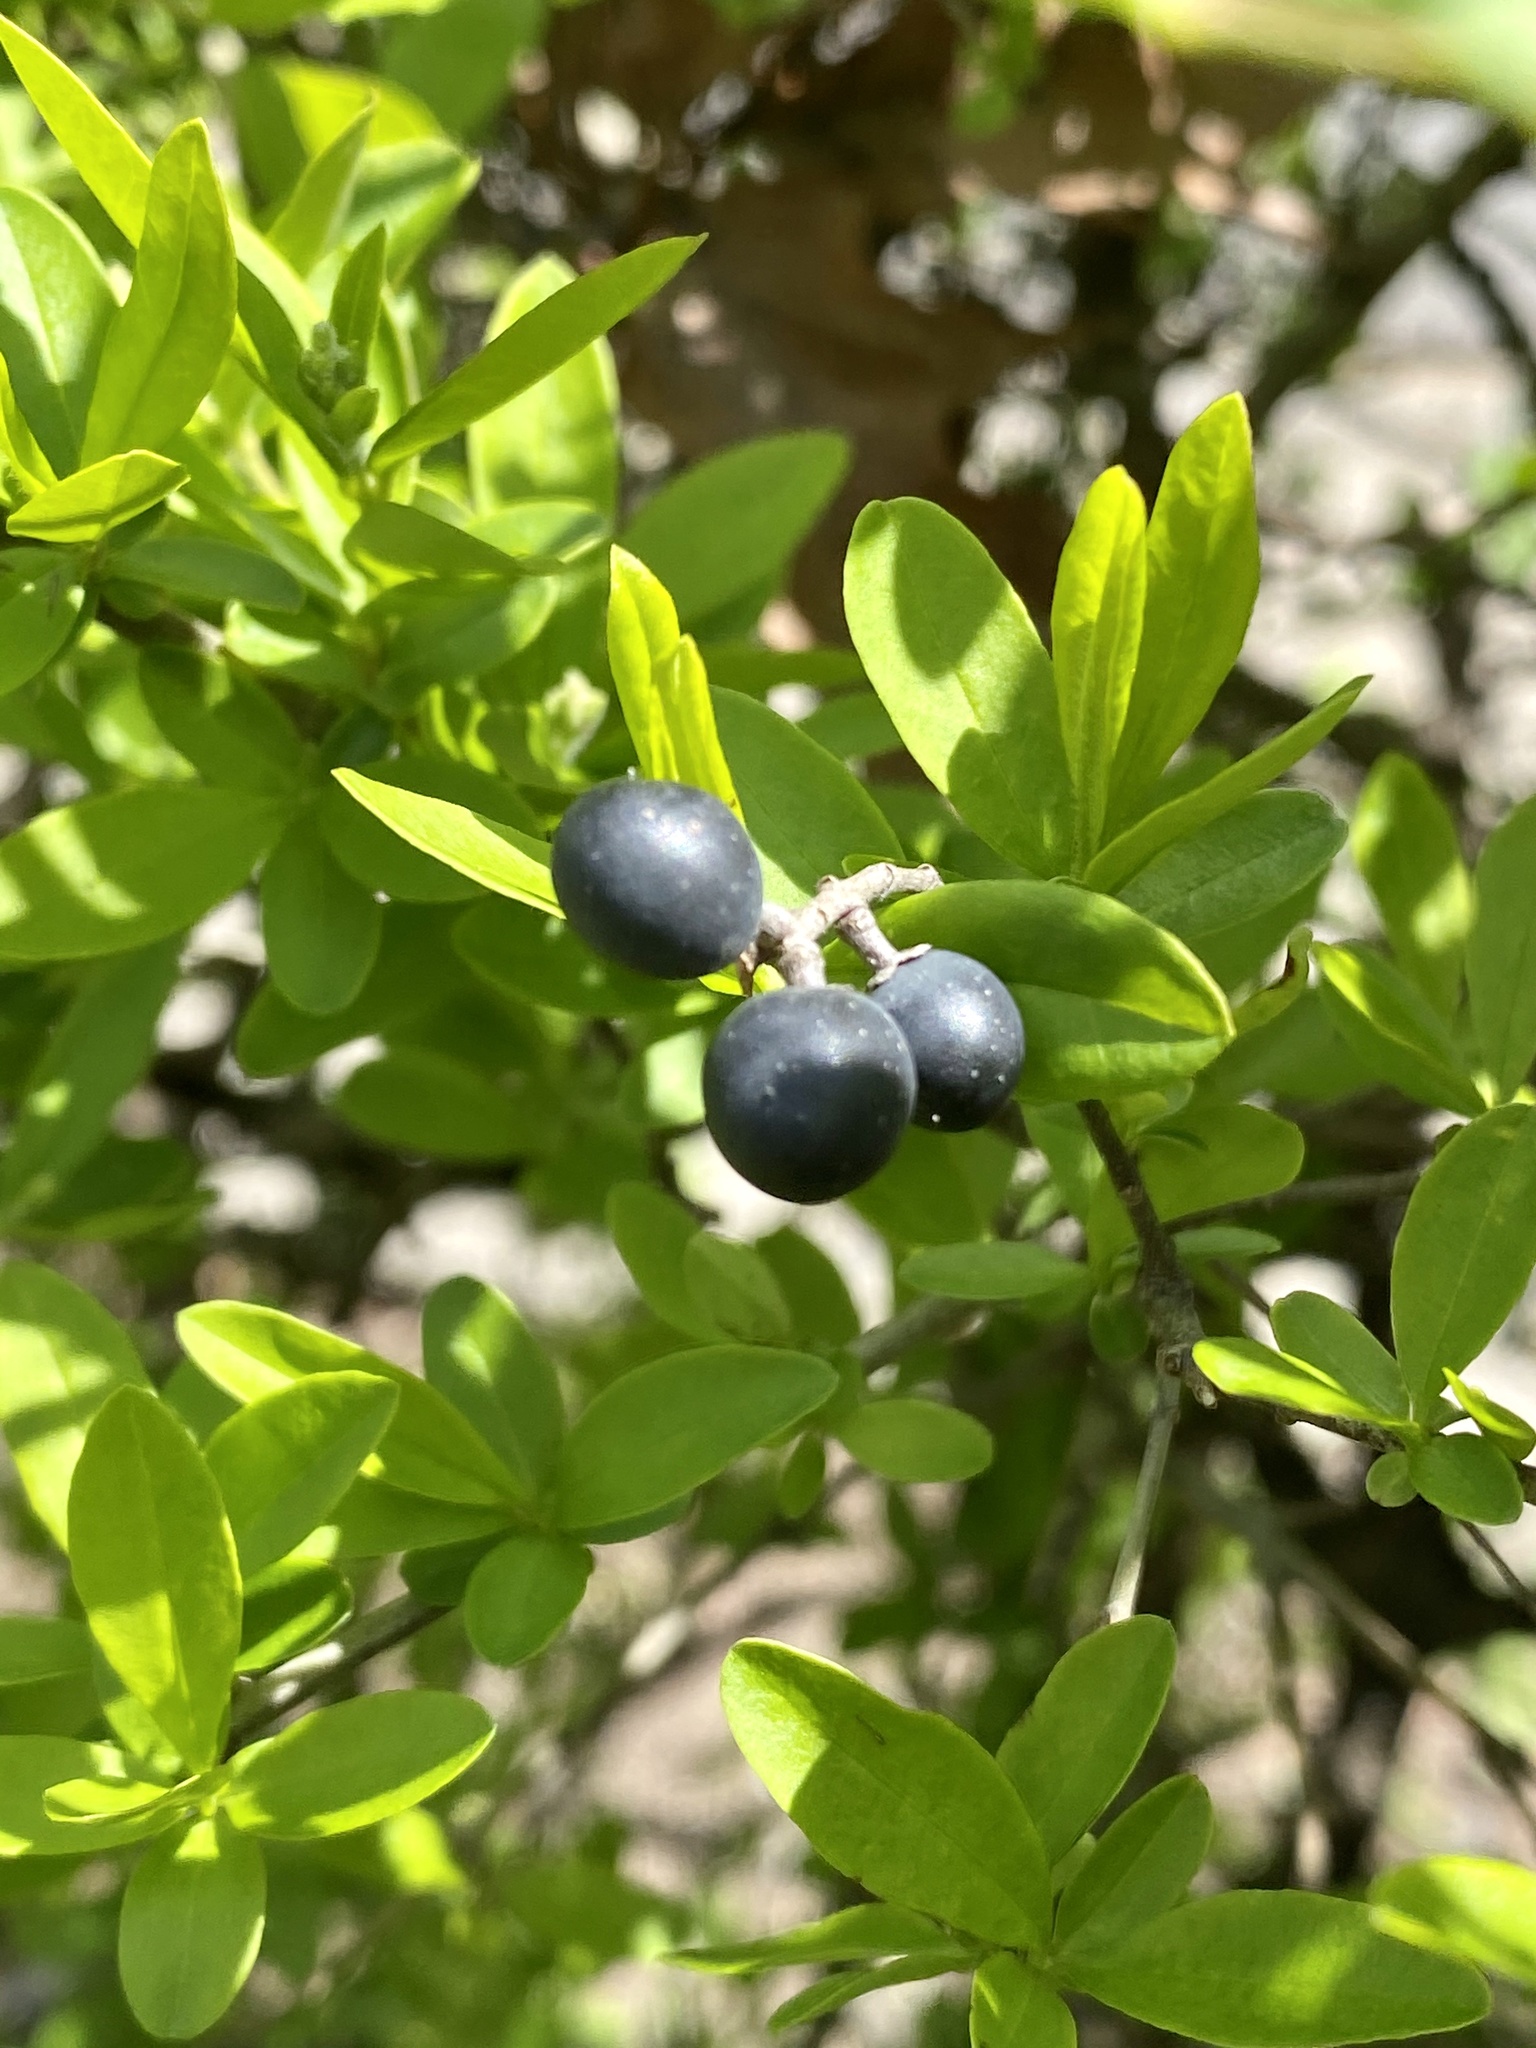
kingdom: Plantae
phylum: Tracheophyta
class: Magnoliopsida
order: Lamiales
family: Oleaceae
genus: Ligustrum
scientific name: Ligustrum obtusifolium
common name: Border privet
